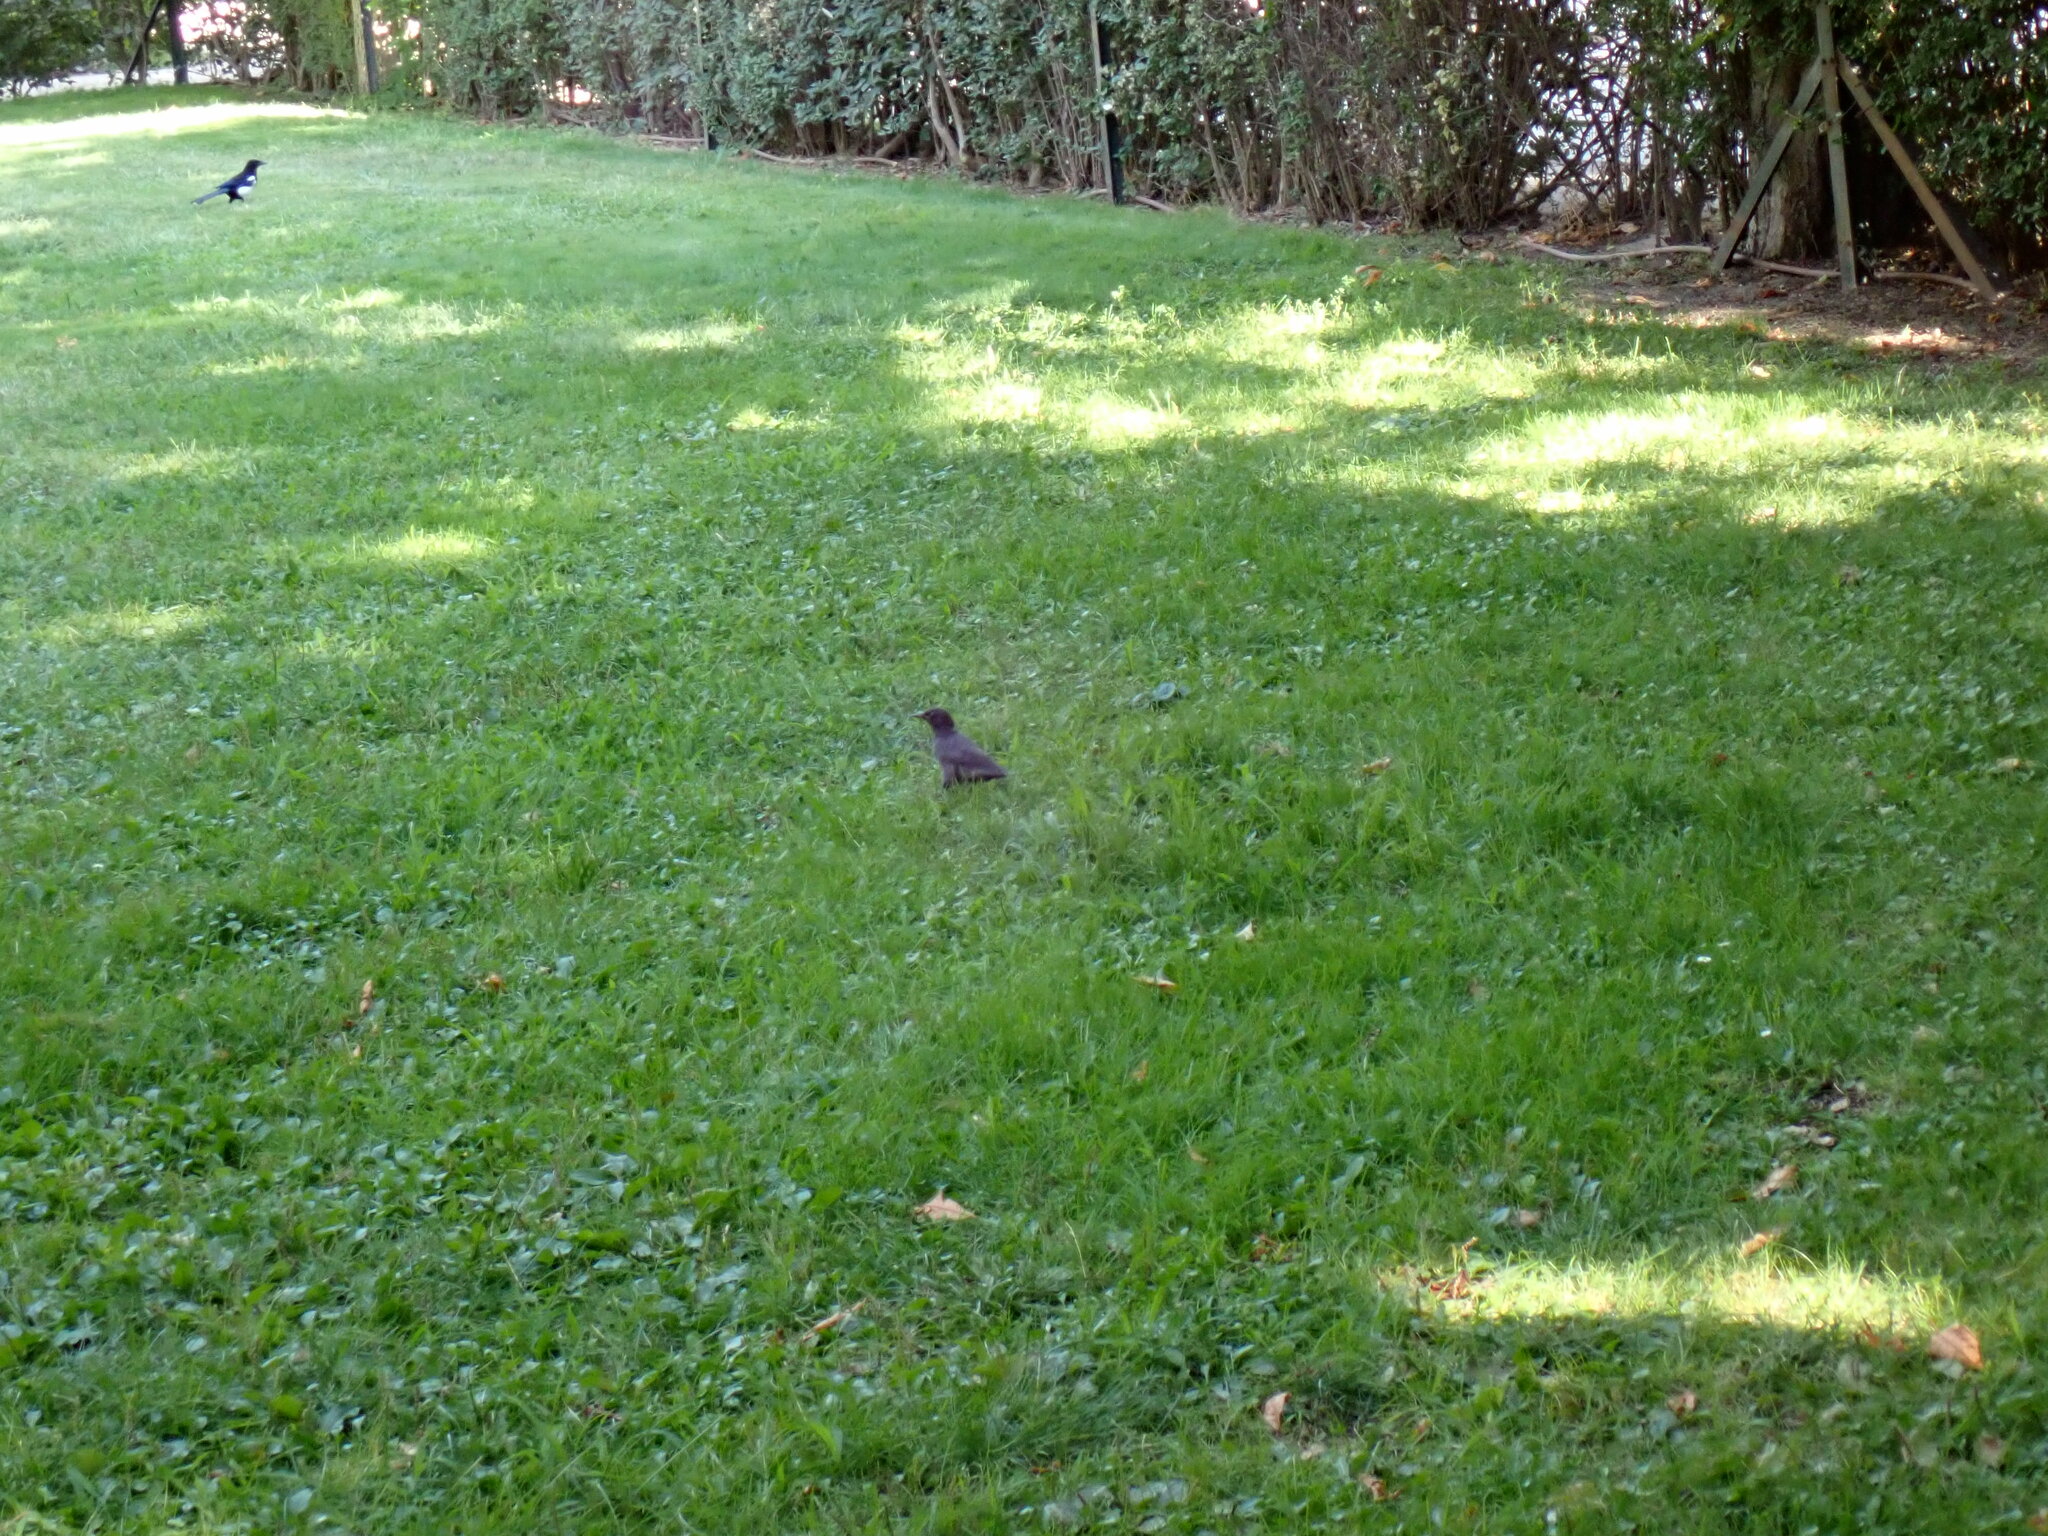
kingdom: Animalia
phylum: Chordata
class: Aves
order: Passeriformes
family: Sturnidae
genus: Sturnus
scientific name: Sturnus unicolor
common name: Spotless starling
